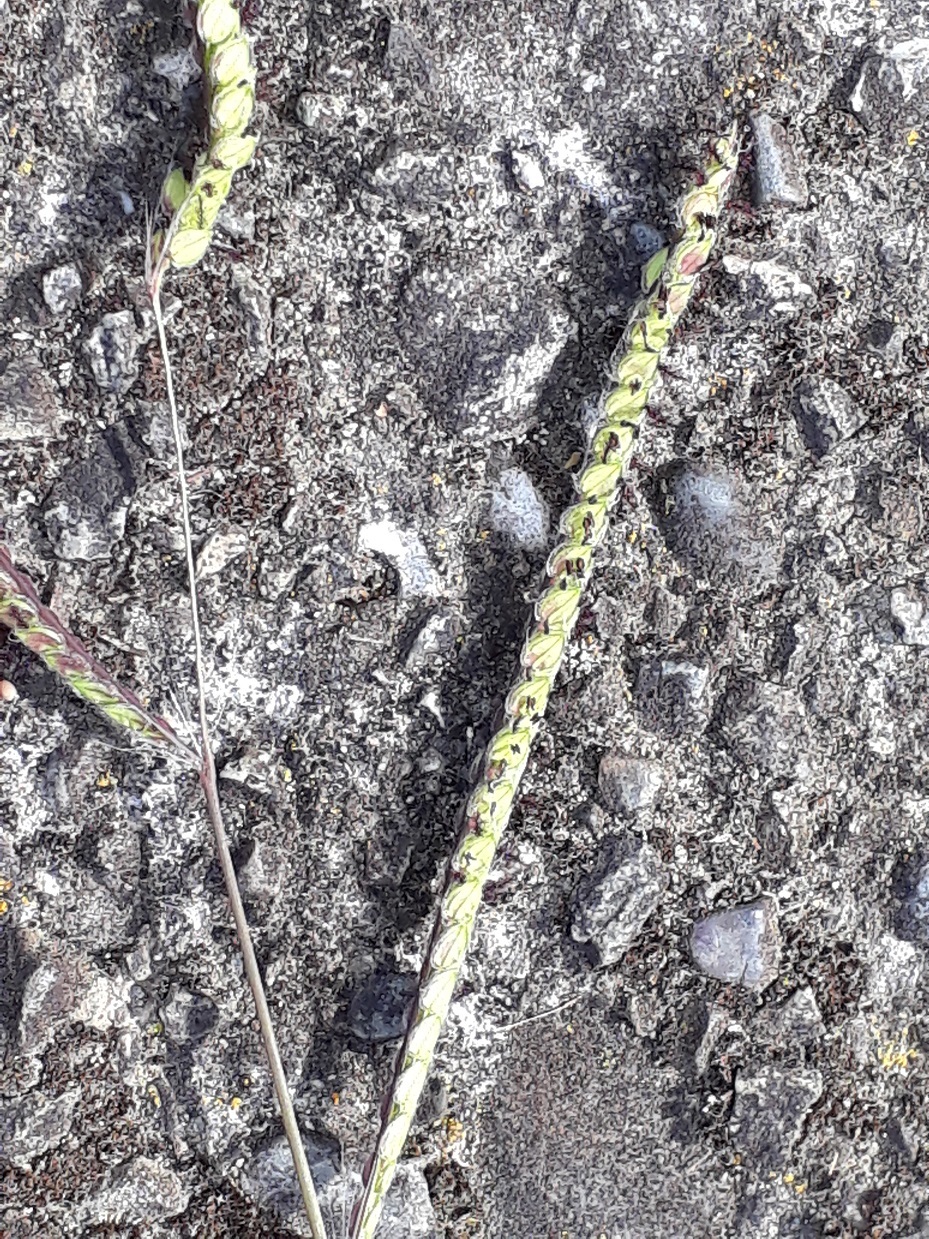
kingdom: Plantae
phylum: Tracheophyta
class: Liliopsida
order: Poales
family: Poaceae
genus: Paspalum
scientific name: Paspalum dilatatum
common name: Dallisgrass
